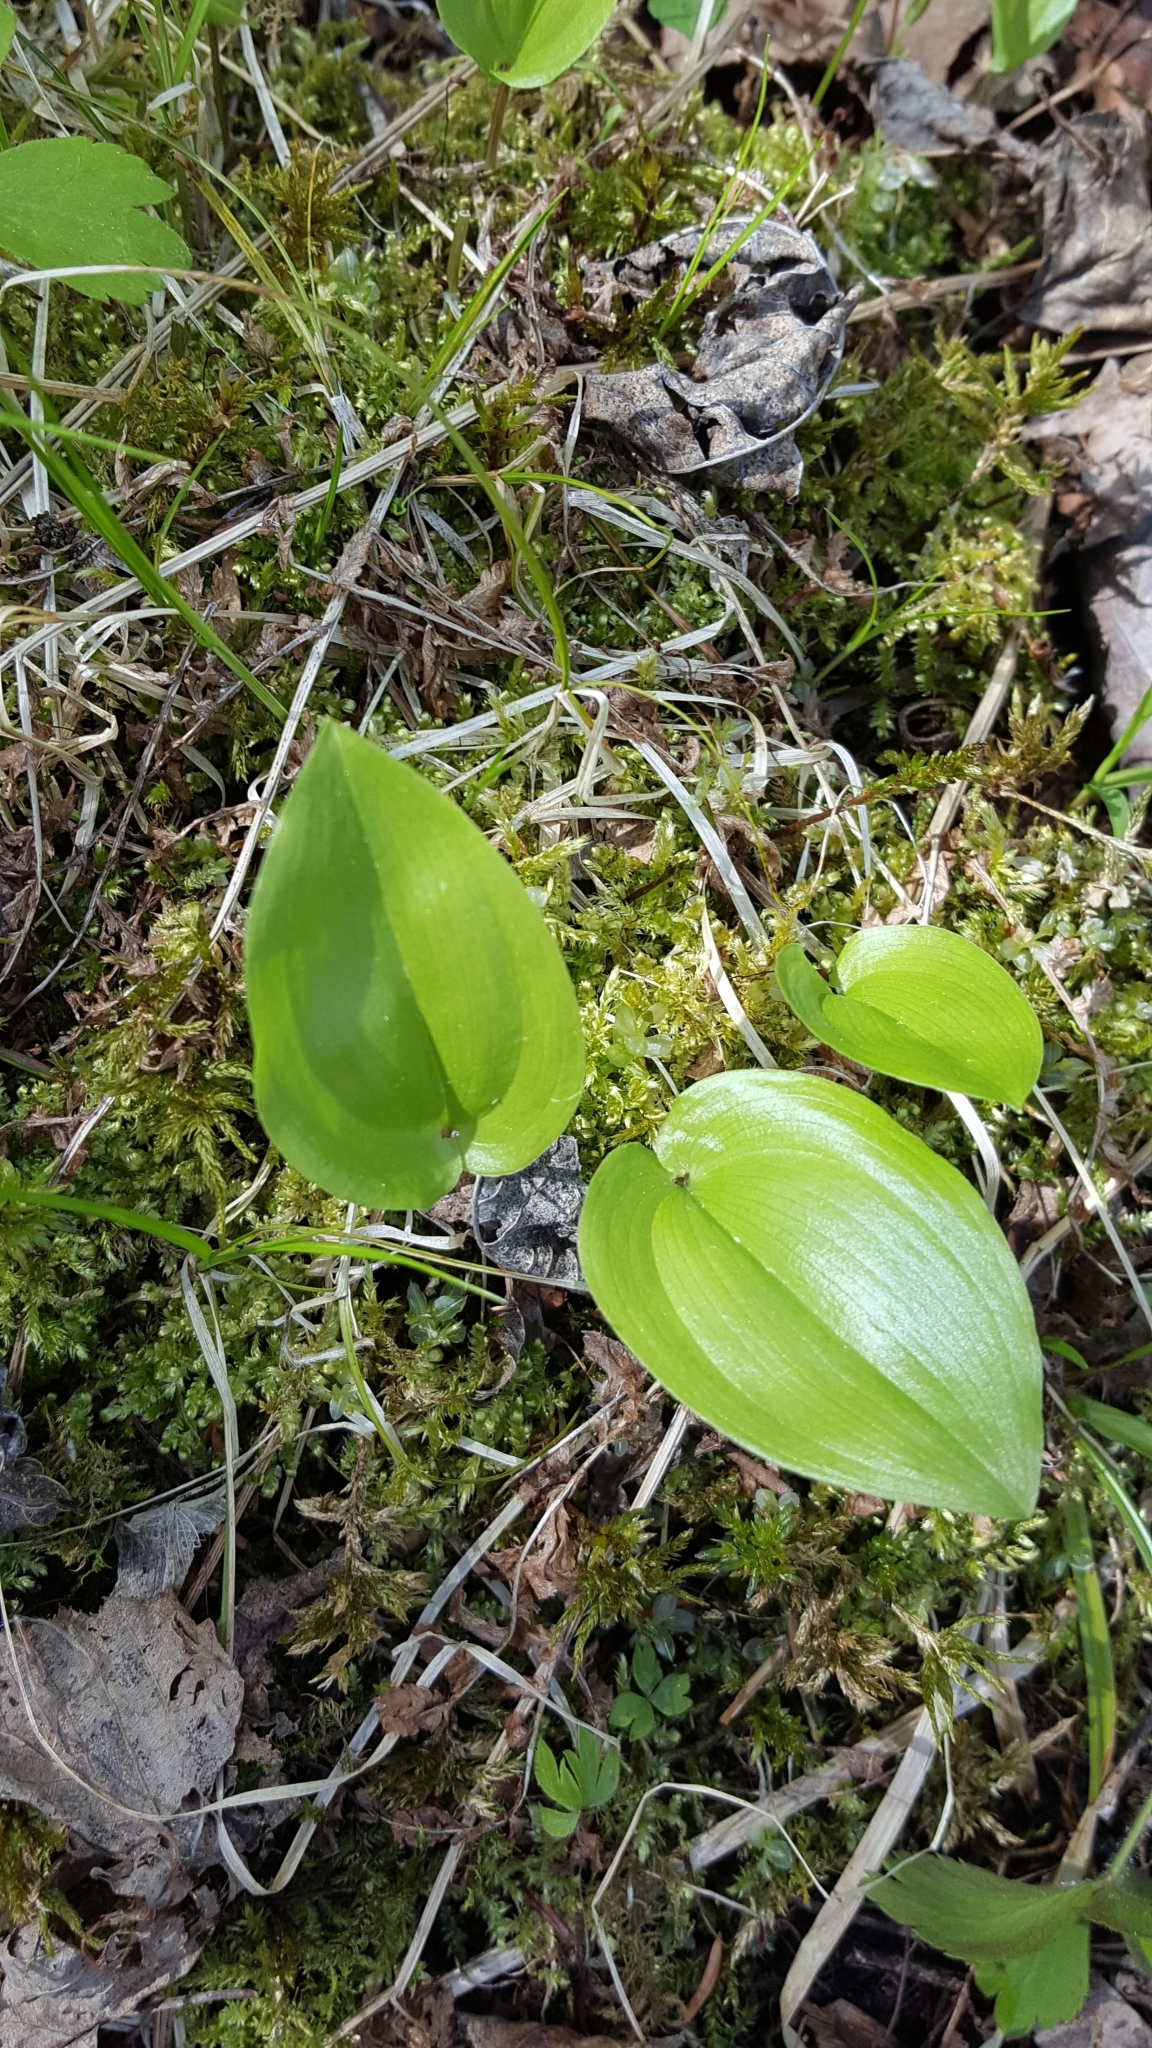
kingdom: Plantae
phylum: Tracheophyta
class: Liliopsida
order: Asparagales
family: Asparagaceae
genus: Maianthemum
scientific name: Maianthemum canadense
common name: False lily-of-the-valley
